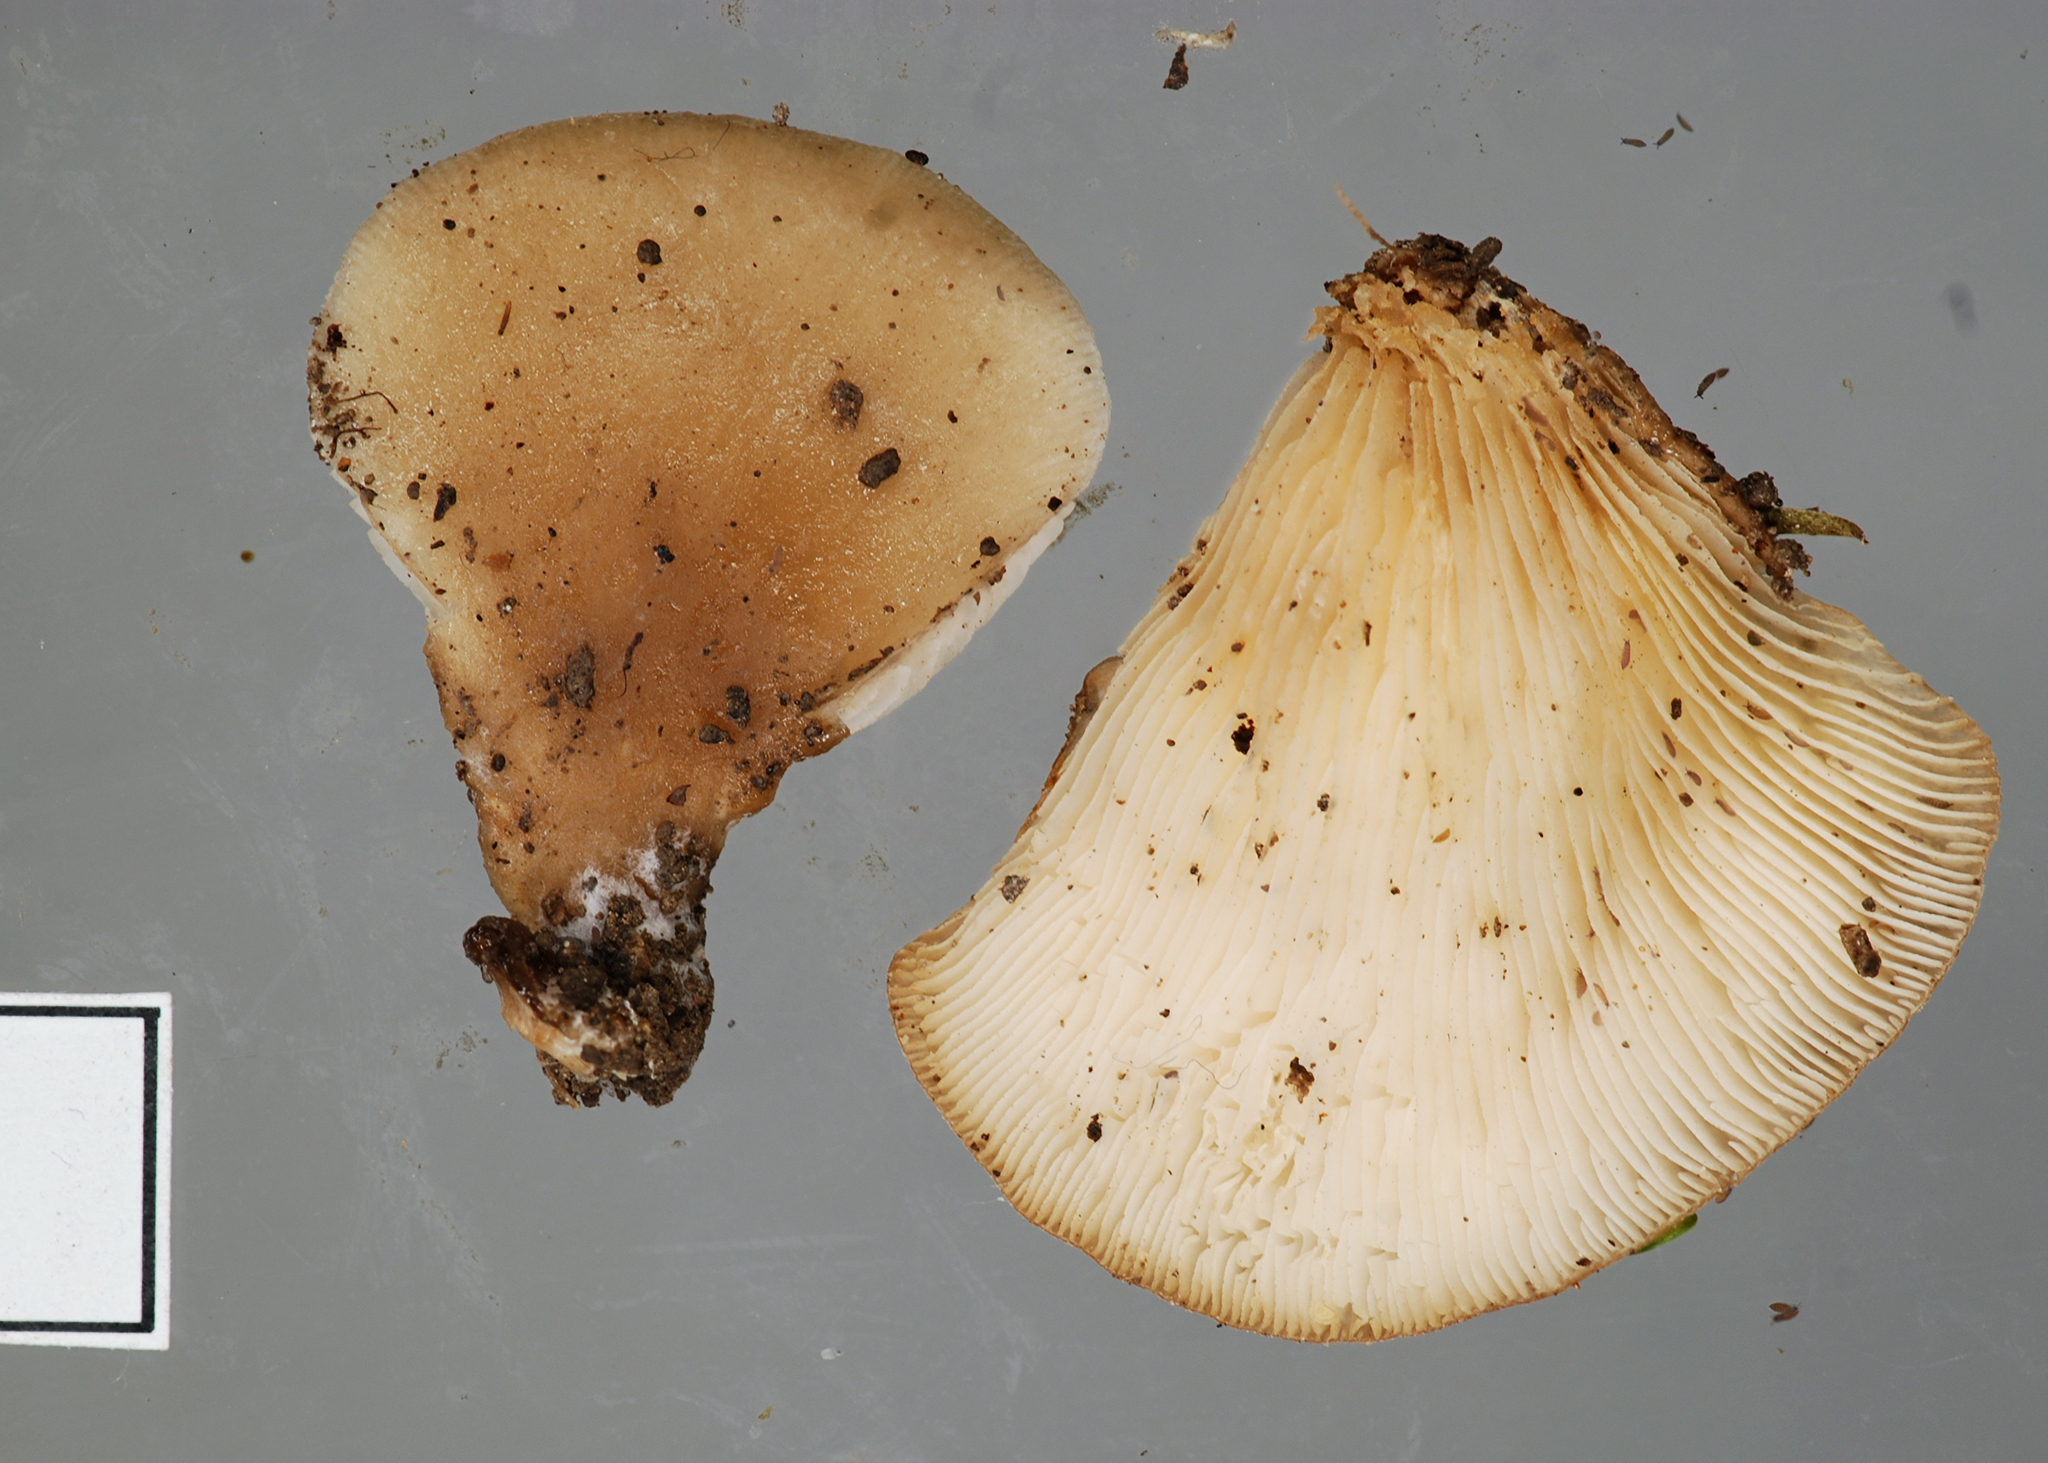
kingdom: Fungi
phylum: Basidiomycota
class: Agaricomycetes
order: Agaricales
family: Pleurotaceae
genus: Hohenbuehelia
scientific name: Hohenbuehelia luteola
